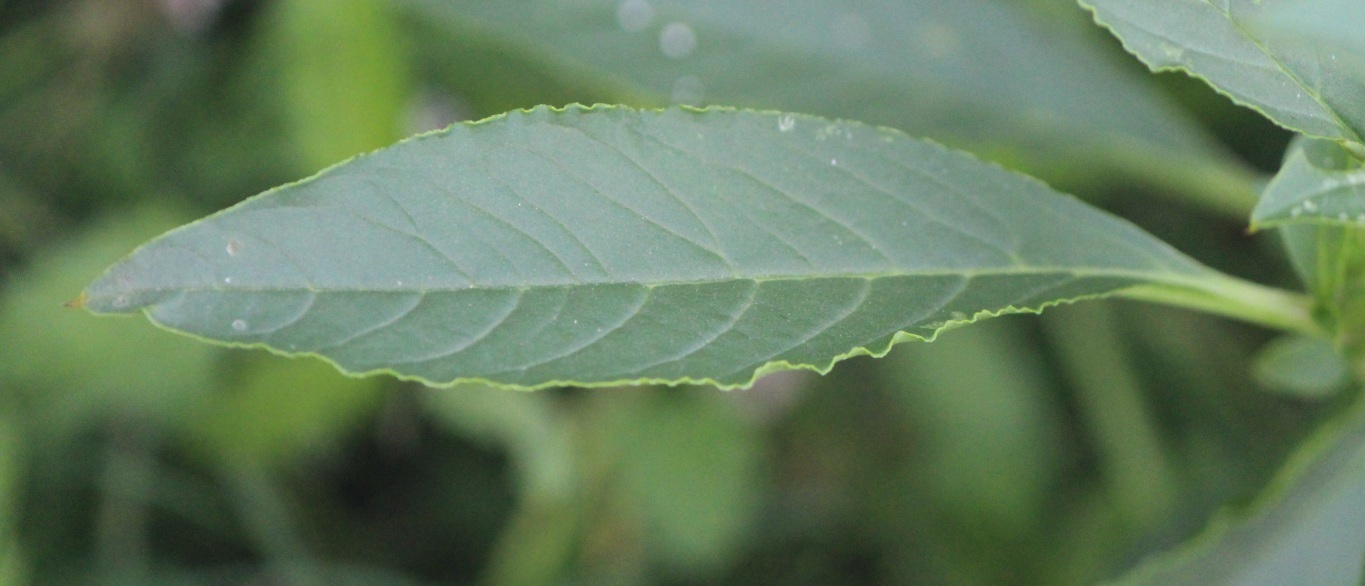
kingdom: Plantae
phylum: Tracheophyta
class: Magnoliopsida
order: Caryophyllales
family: Phytolaccaceae
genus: Phytolacca
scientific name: Phytolacca icosandra
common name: Button pokeweed
